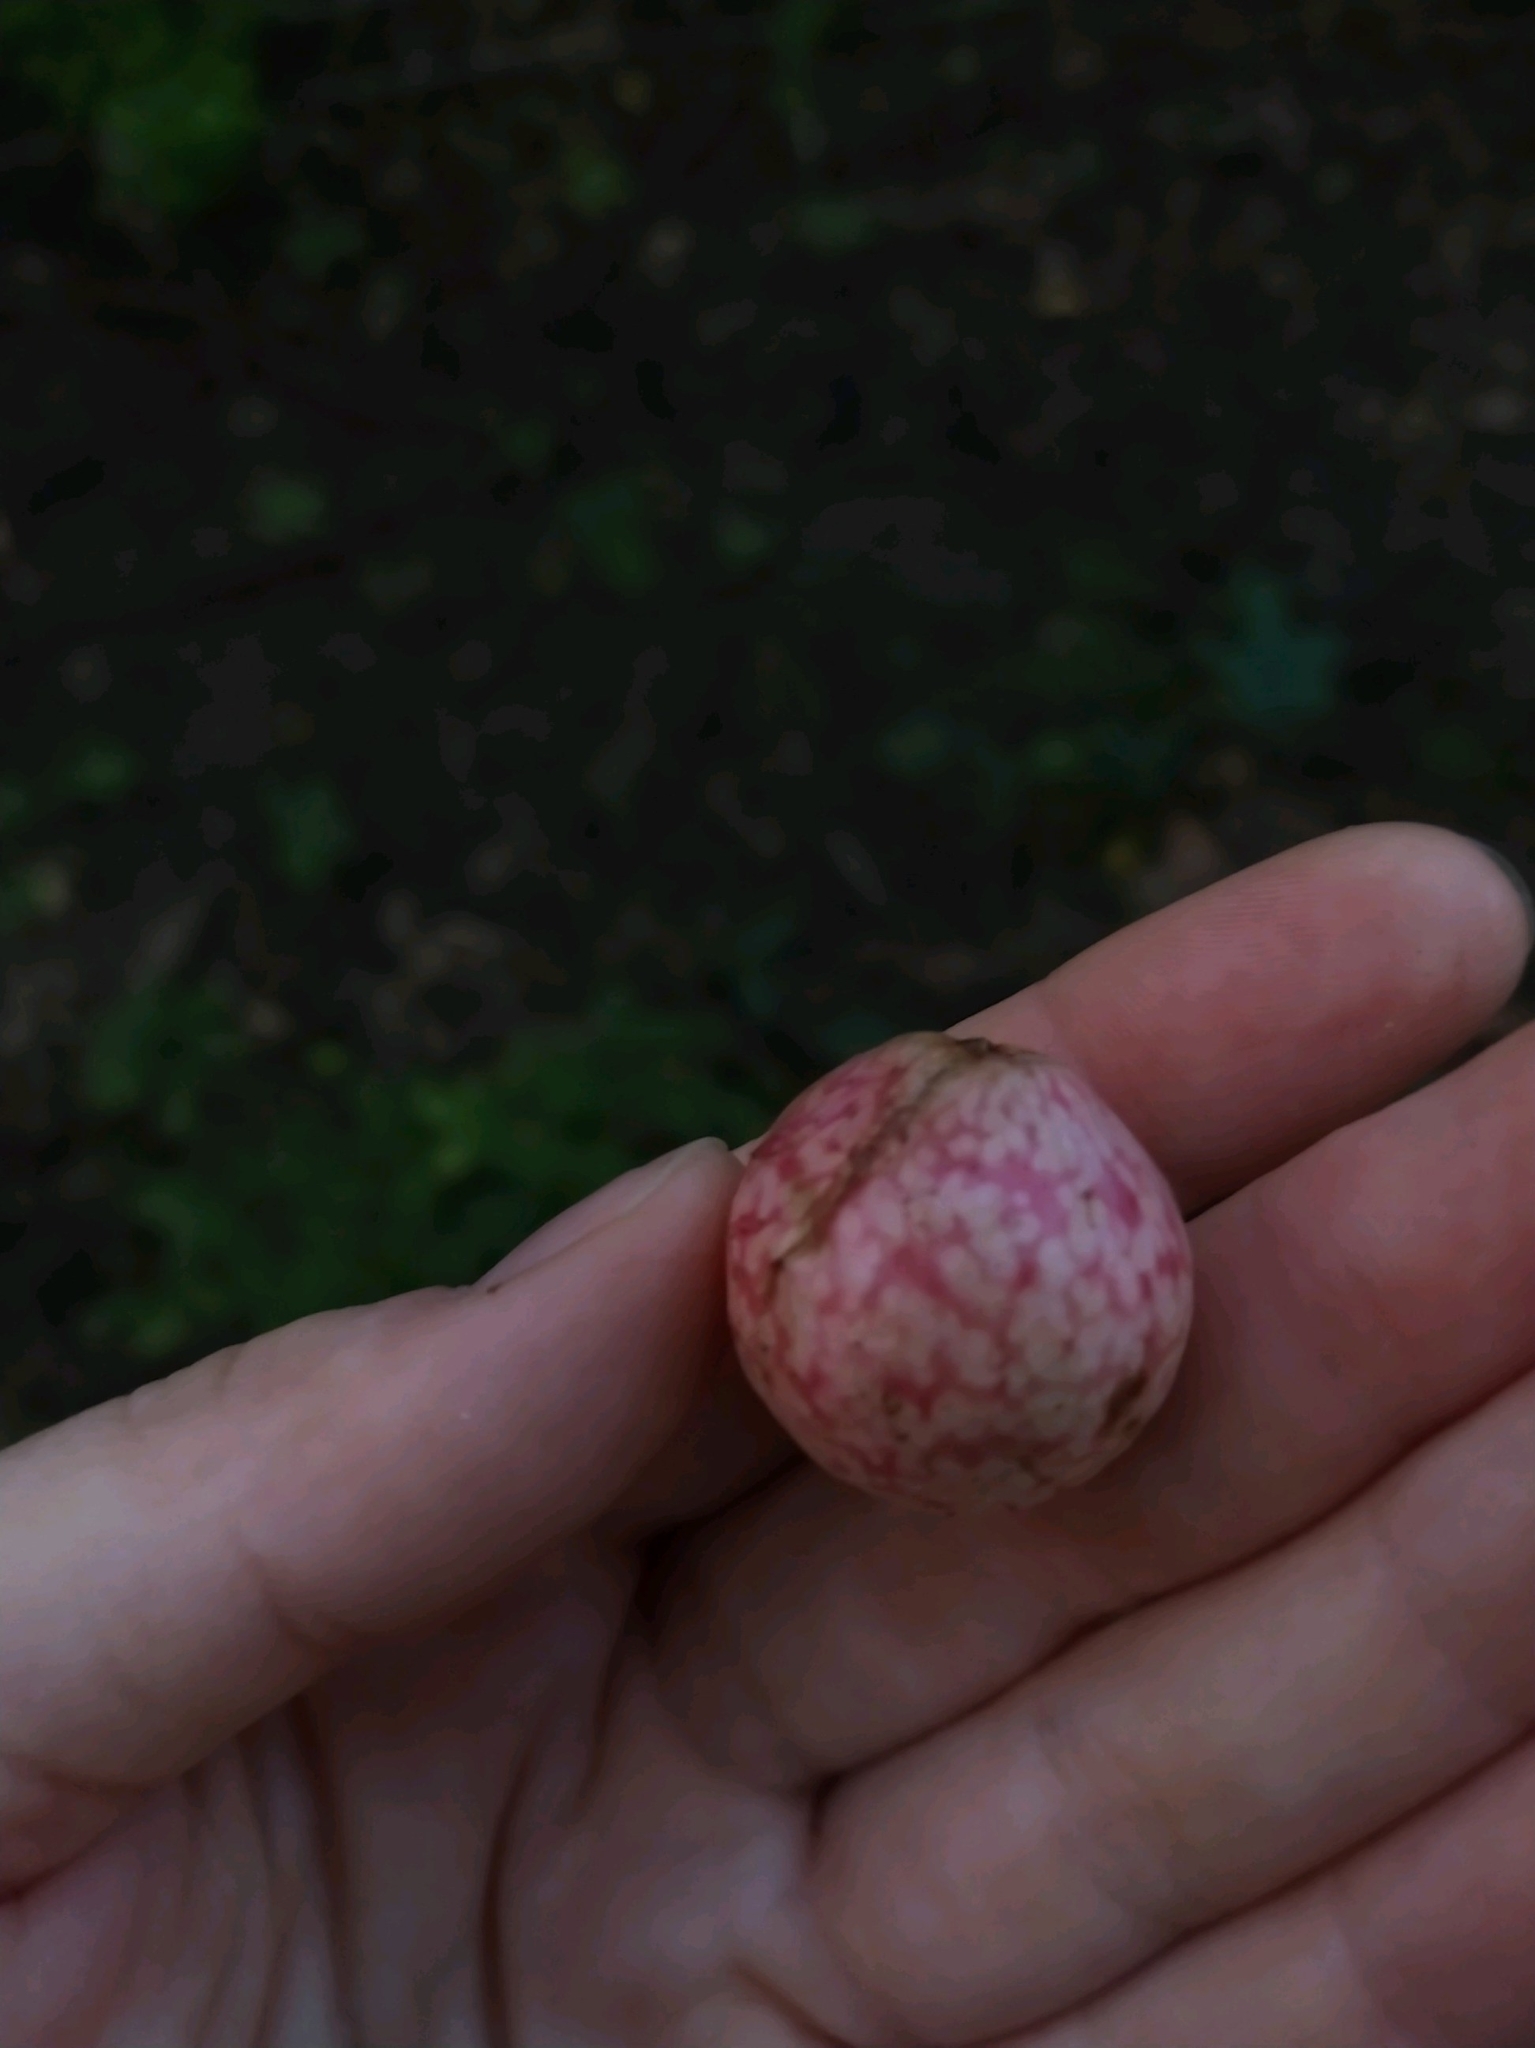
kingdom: Animalia
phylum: Arthropoda
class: Insecta
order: Hymenoptera
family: Cynipidae
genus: Amphibolips
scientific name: Amphibolips
